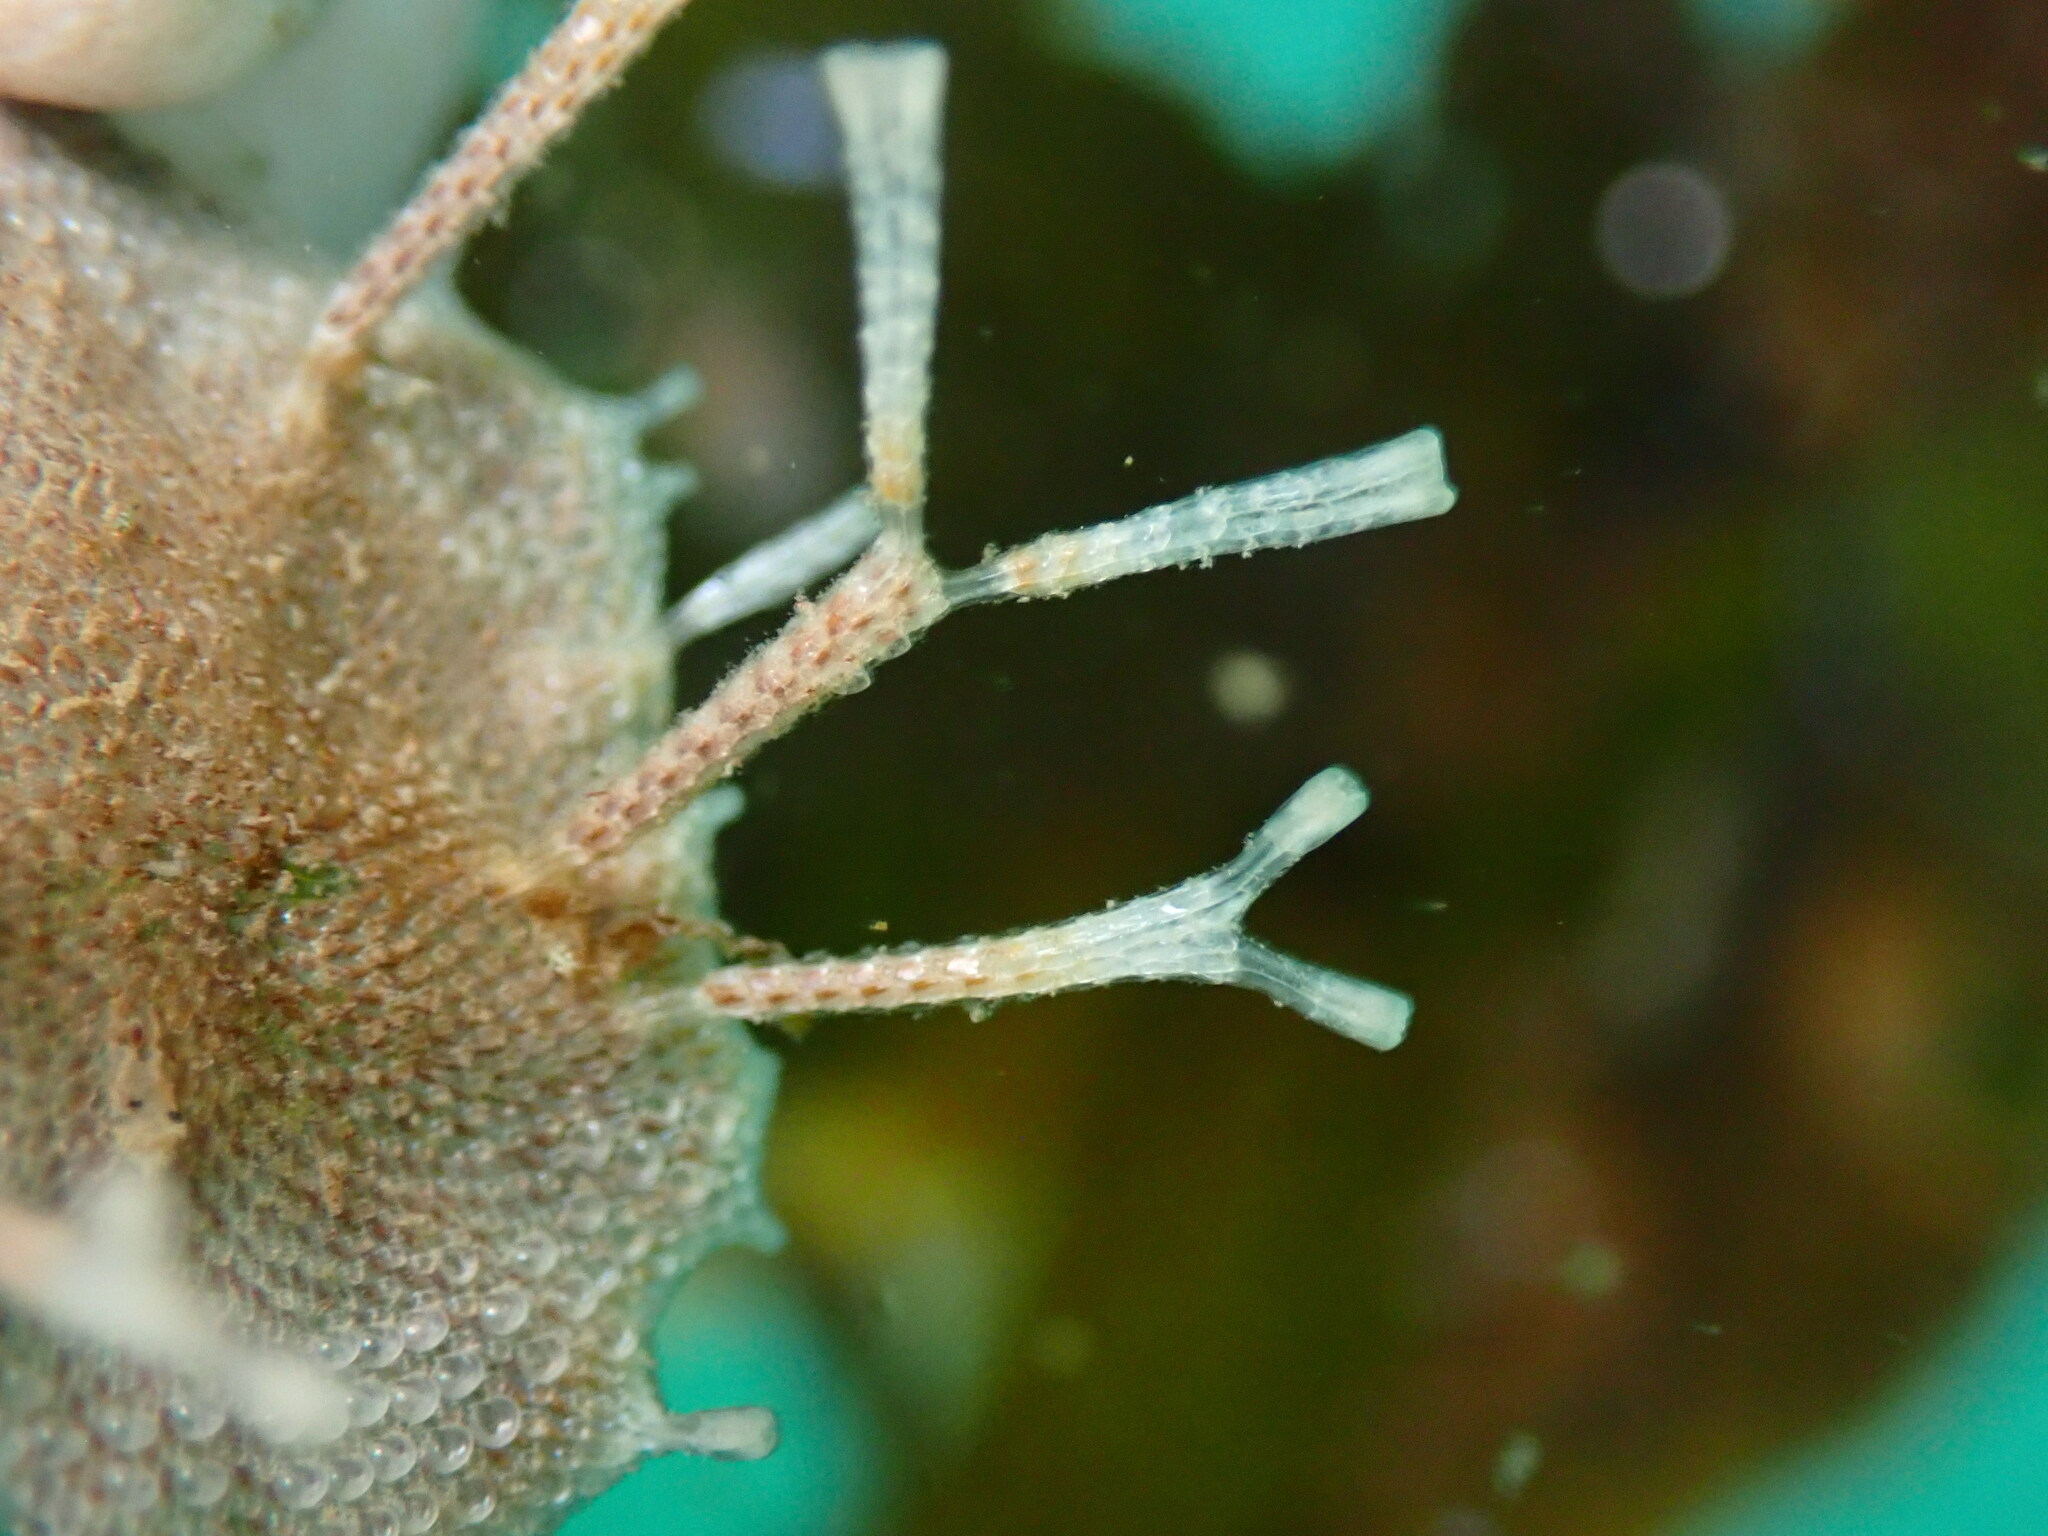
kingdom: Animalia
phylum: Bryozoa
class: Gymnolaemata
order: Cheilostomatida
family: Thalamoporellidae
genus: Thalamoporella
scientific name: Thalamoporella californica
